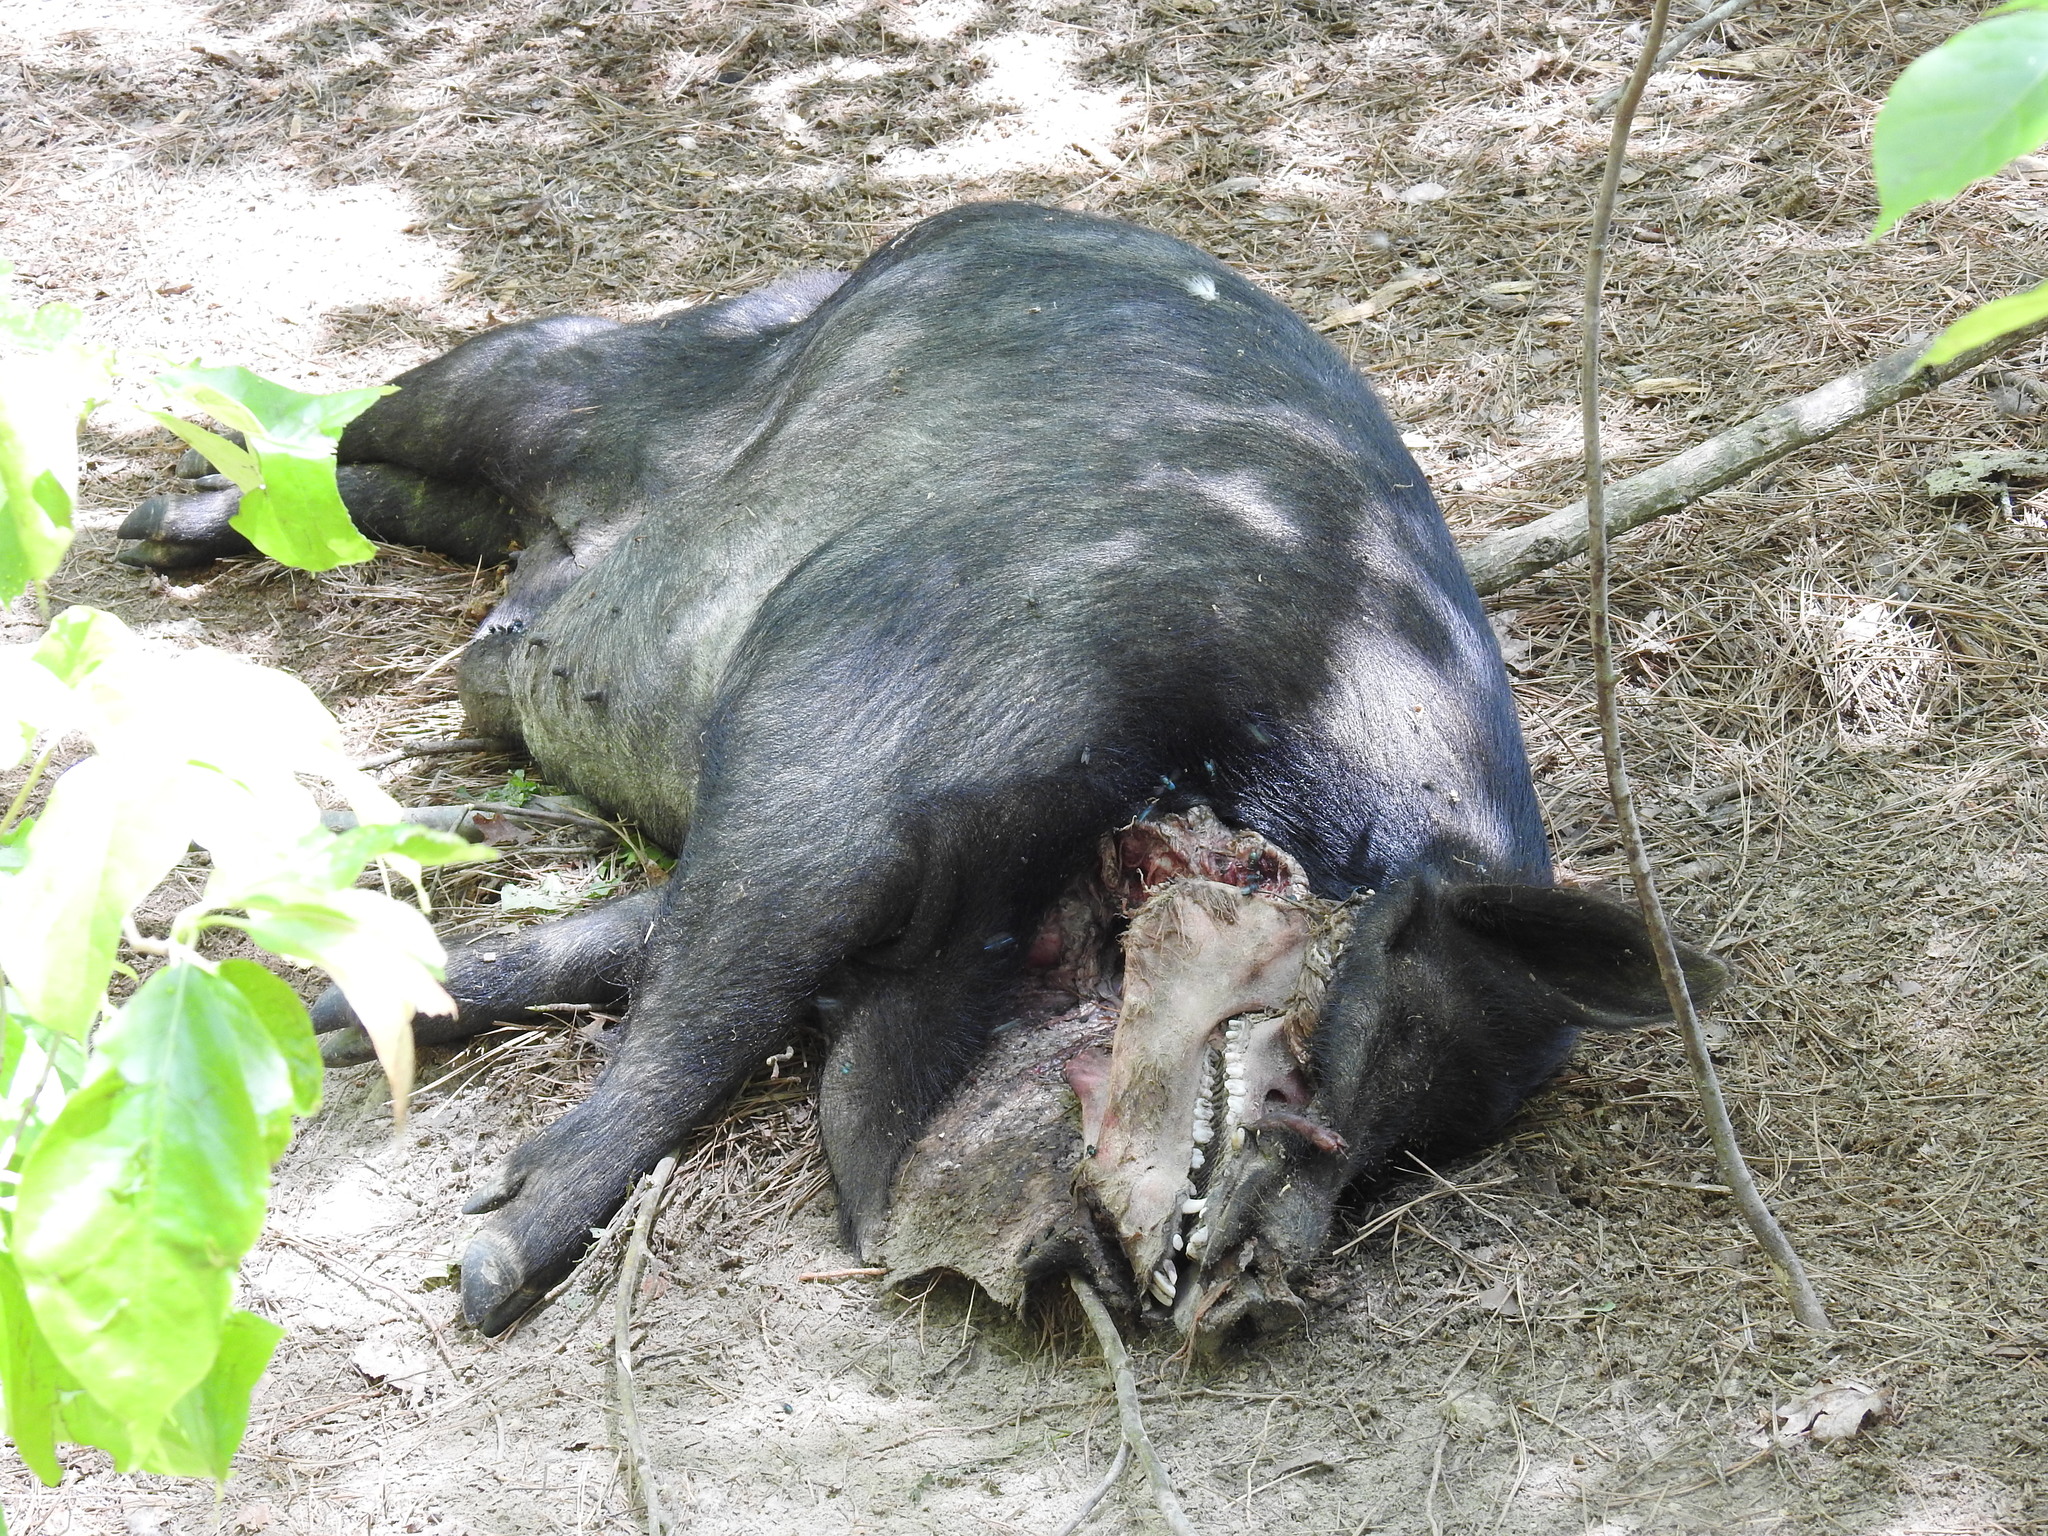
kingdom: Animalia
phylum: Chordata
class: Mammalia
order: Artiodactyla
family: Suidae
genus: Sus
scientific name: Sus scrofa
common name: Wild boar
